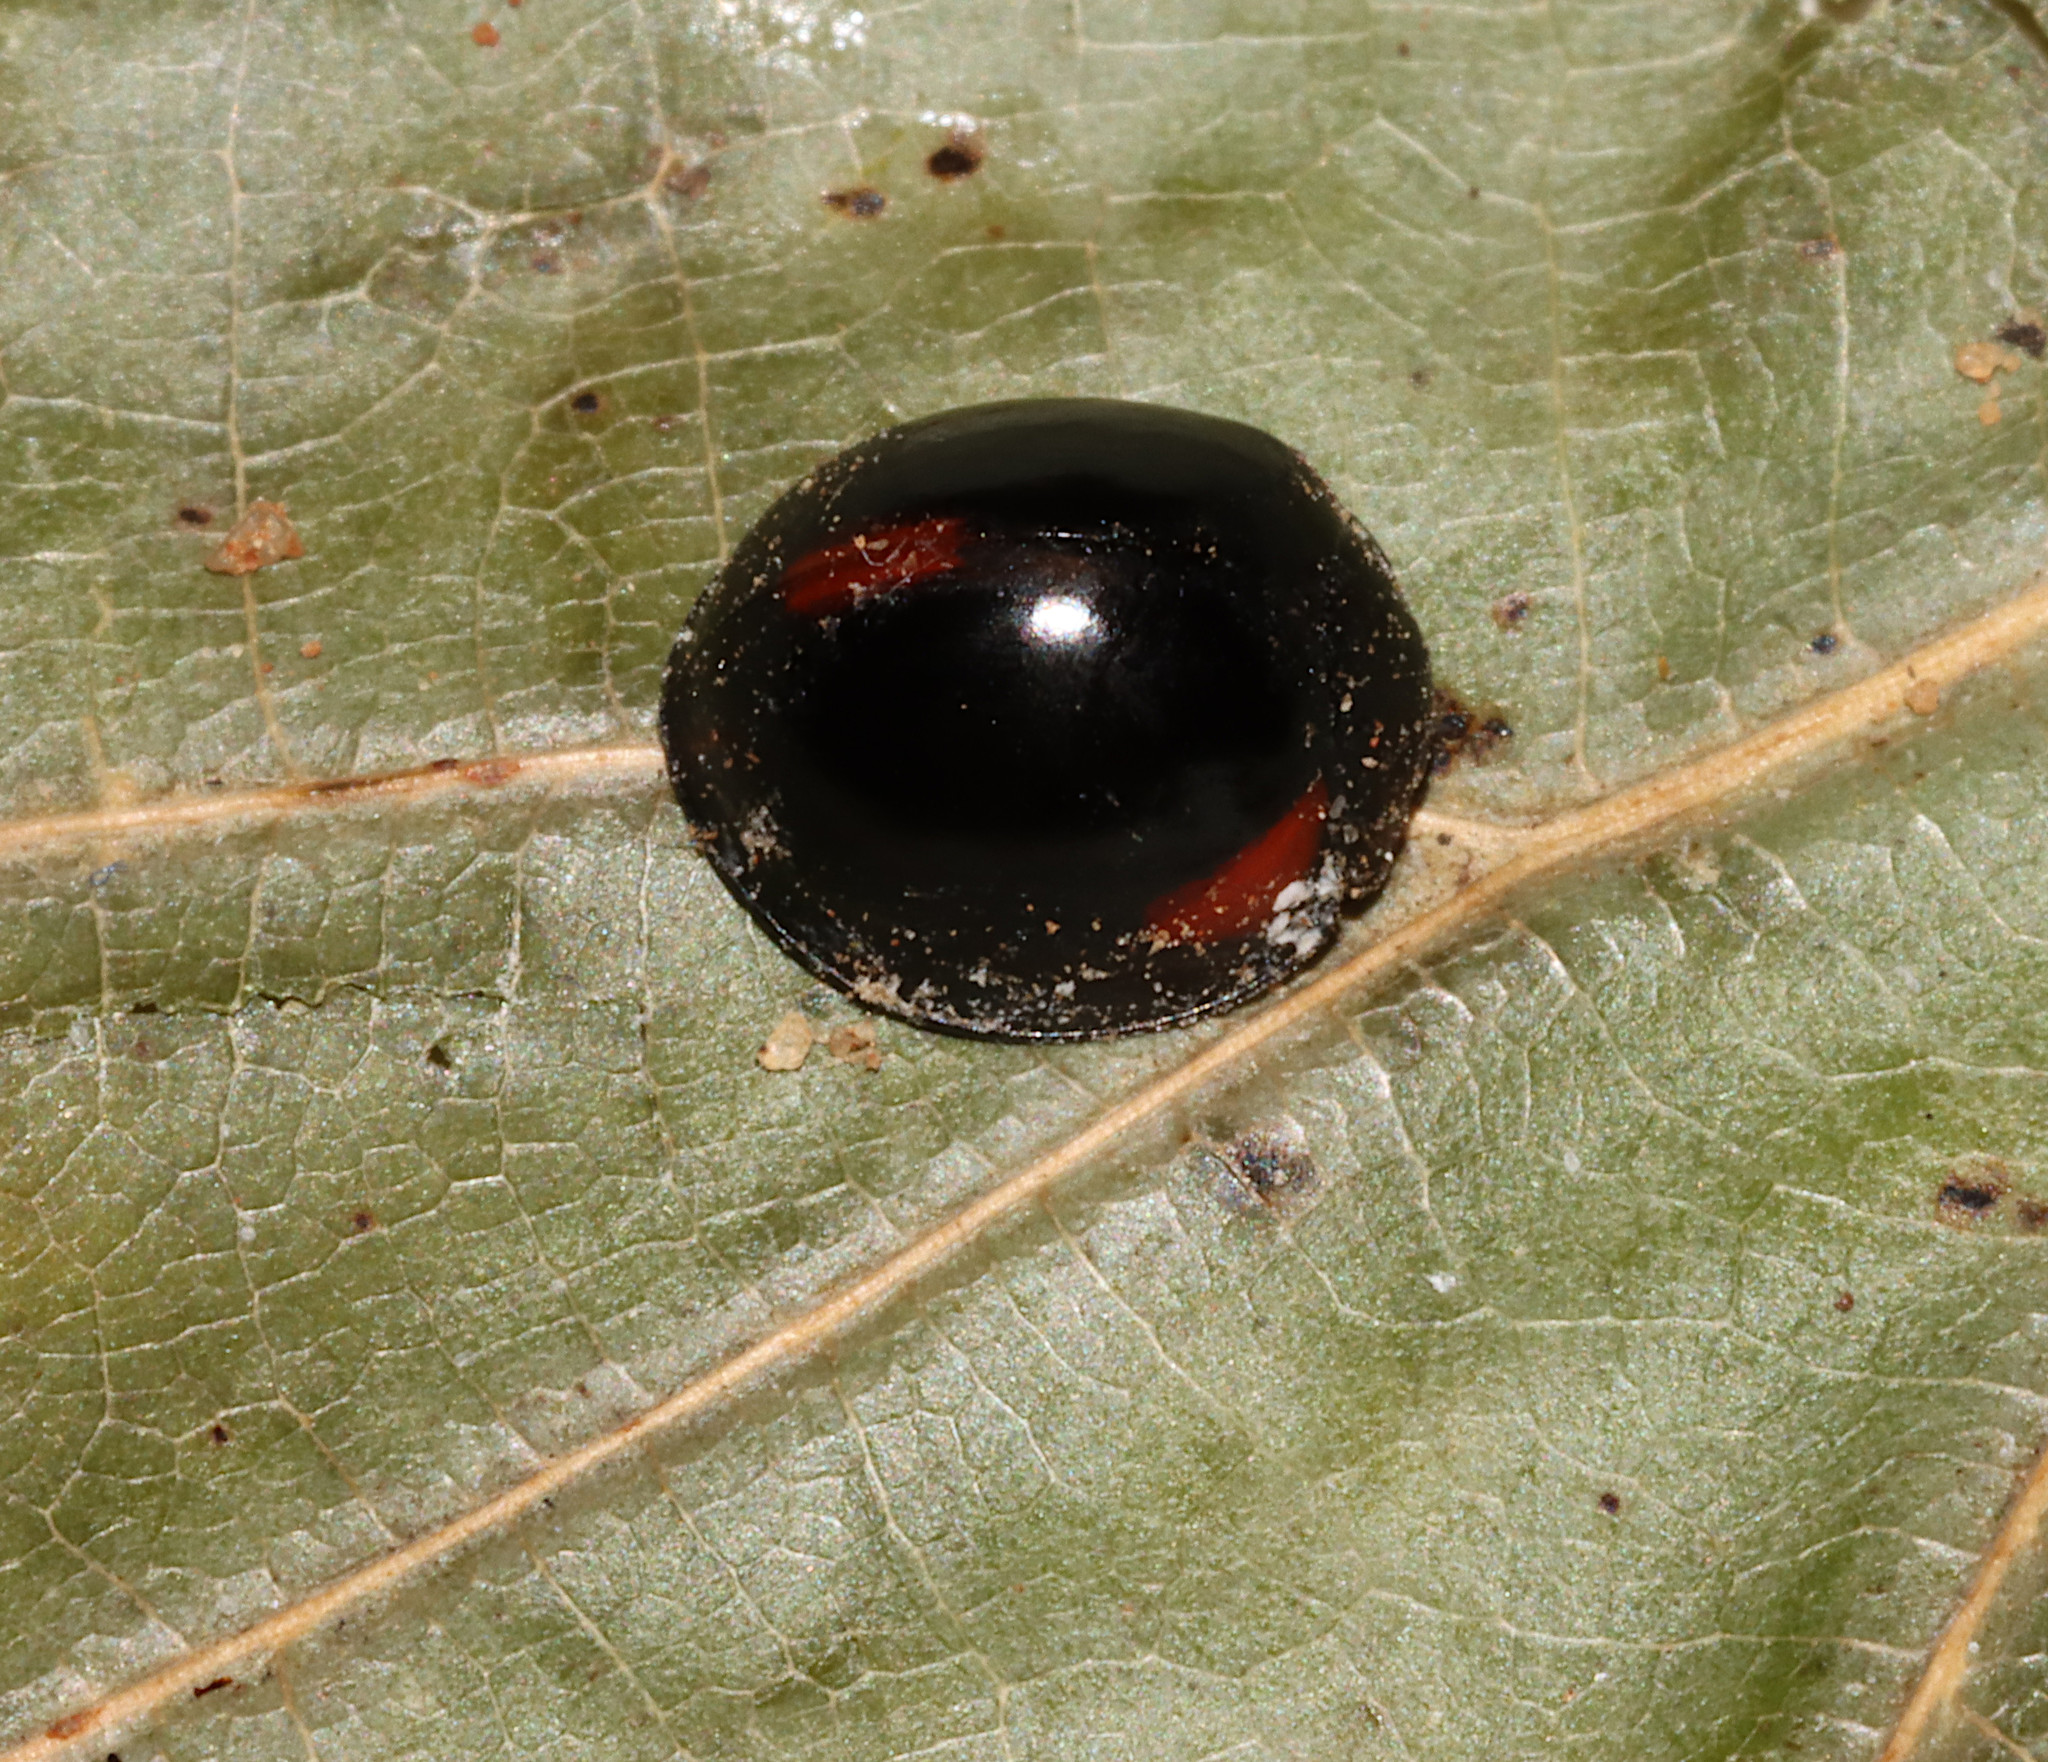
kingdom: Animalia
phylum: Arthropoda
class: Insecta
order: Coleoptera
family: Coccinellidae
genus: Axion
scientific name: Axion tripustulatum
